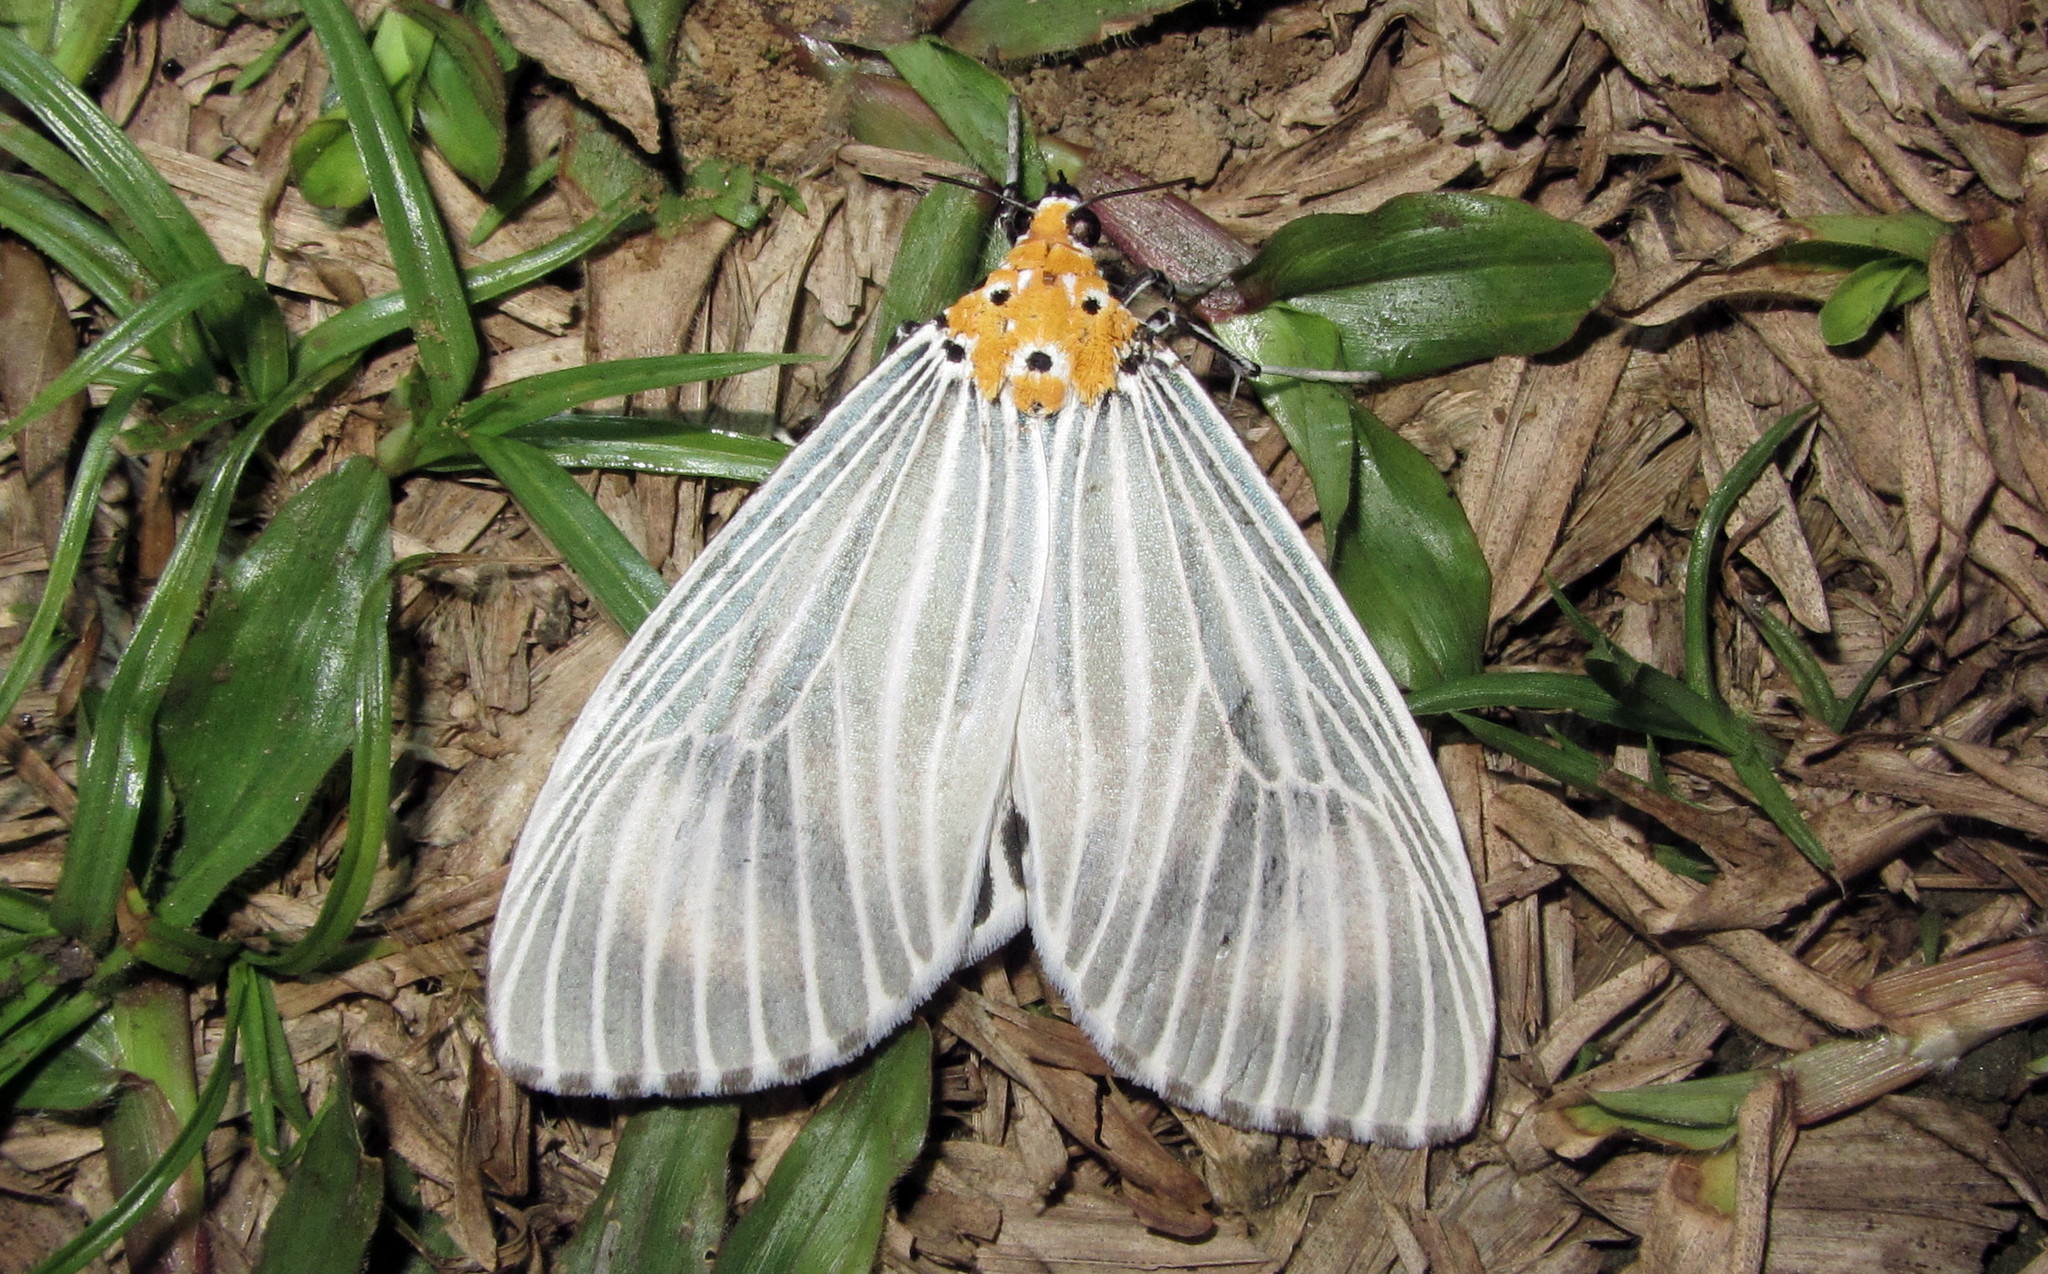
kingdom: Animalia
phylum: Arthropoda
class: Insecta
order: Lepidoptera
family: Erebidae
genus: Neochera
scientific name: Neochera dominia
